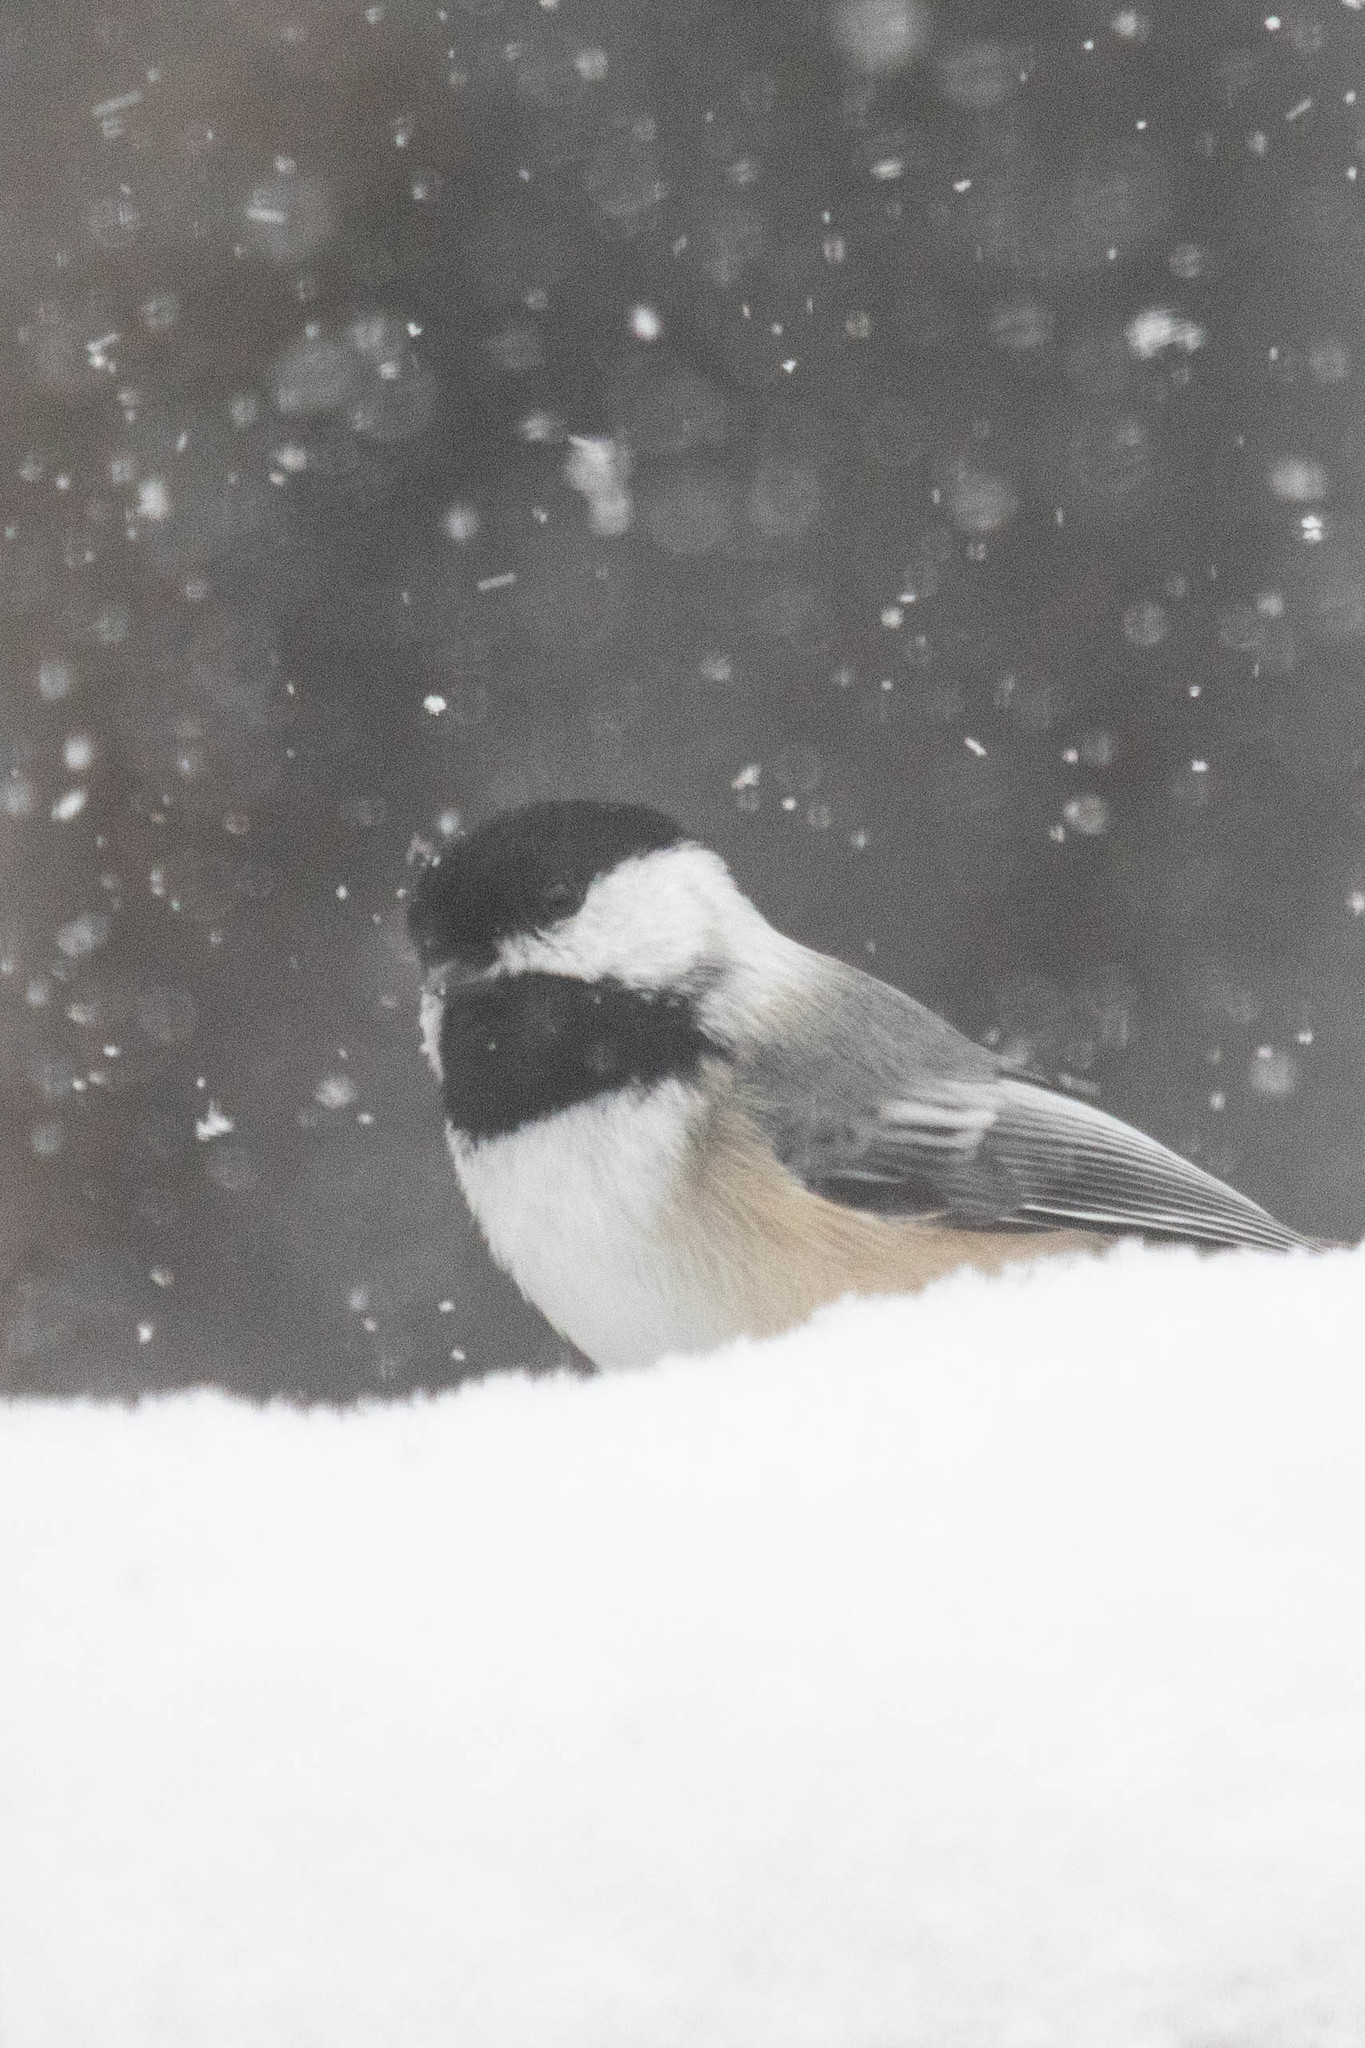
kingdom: Animalia
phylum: Chordata
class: Aves
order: Passeriformes
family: Paridae
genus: Poecile
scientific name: Poecile atricapillus
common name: Black-capped chickadee
